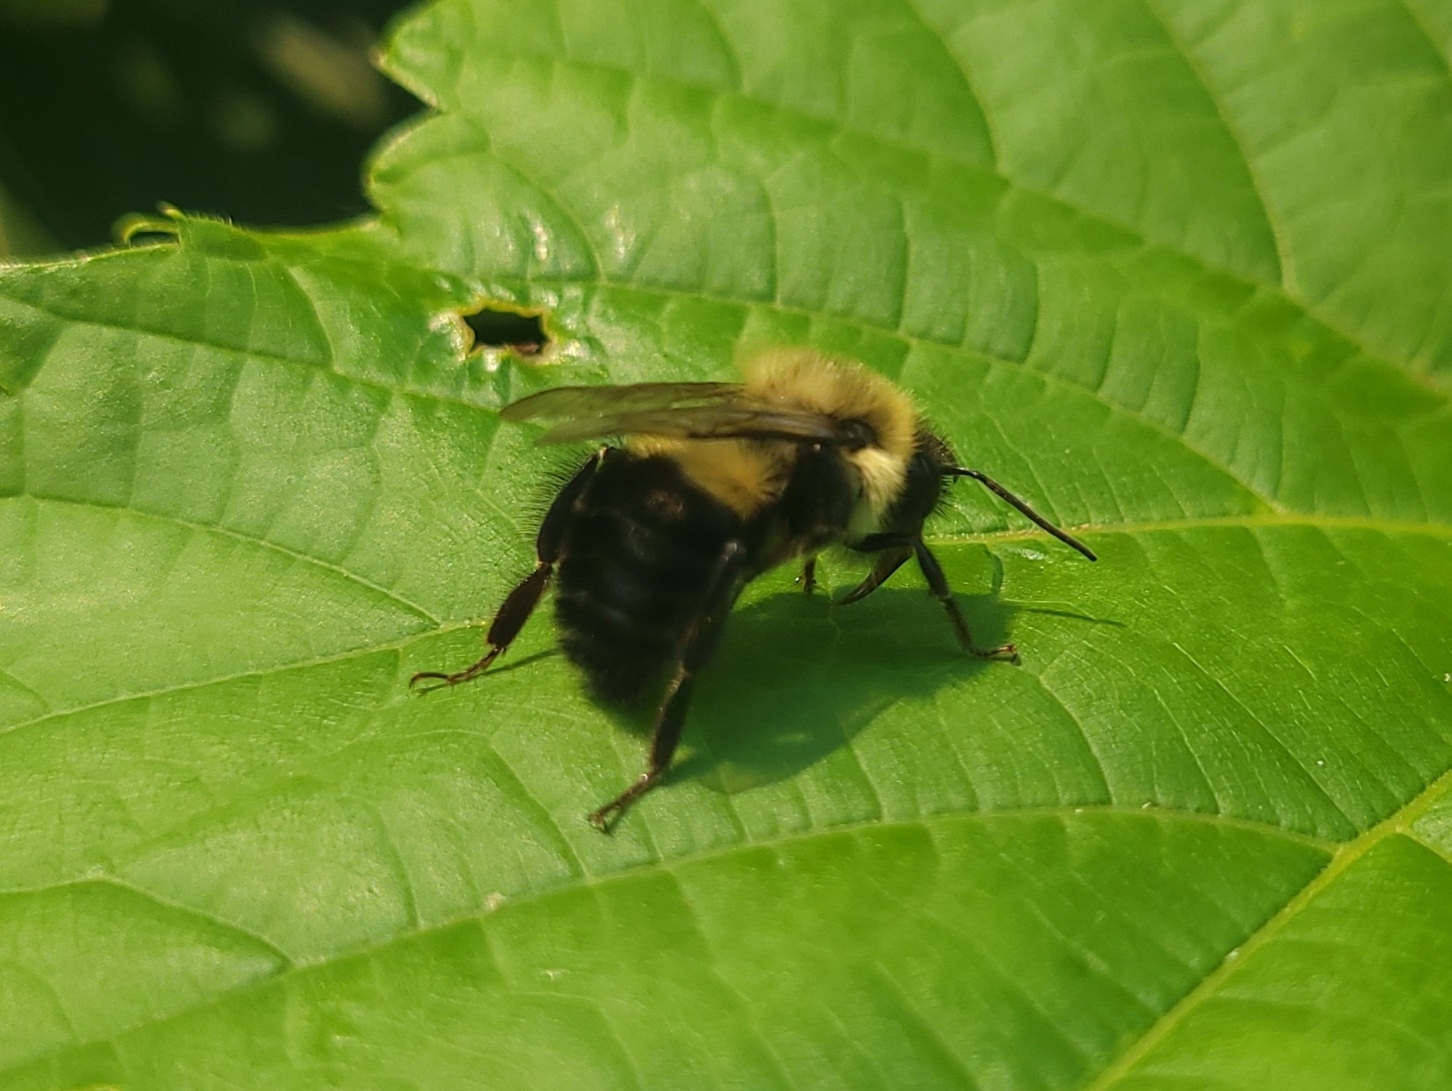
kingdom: Animalia
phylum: Arthropoda
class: Insecta
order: Hymenoptera
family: Apidae
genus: Bombus
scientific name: Bombus impatiens
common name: Common eastern bumble bee
